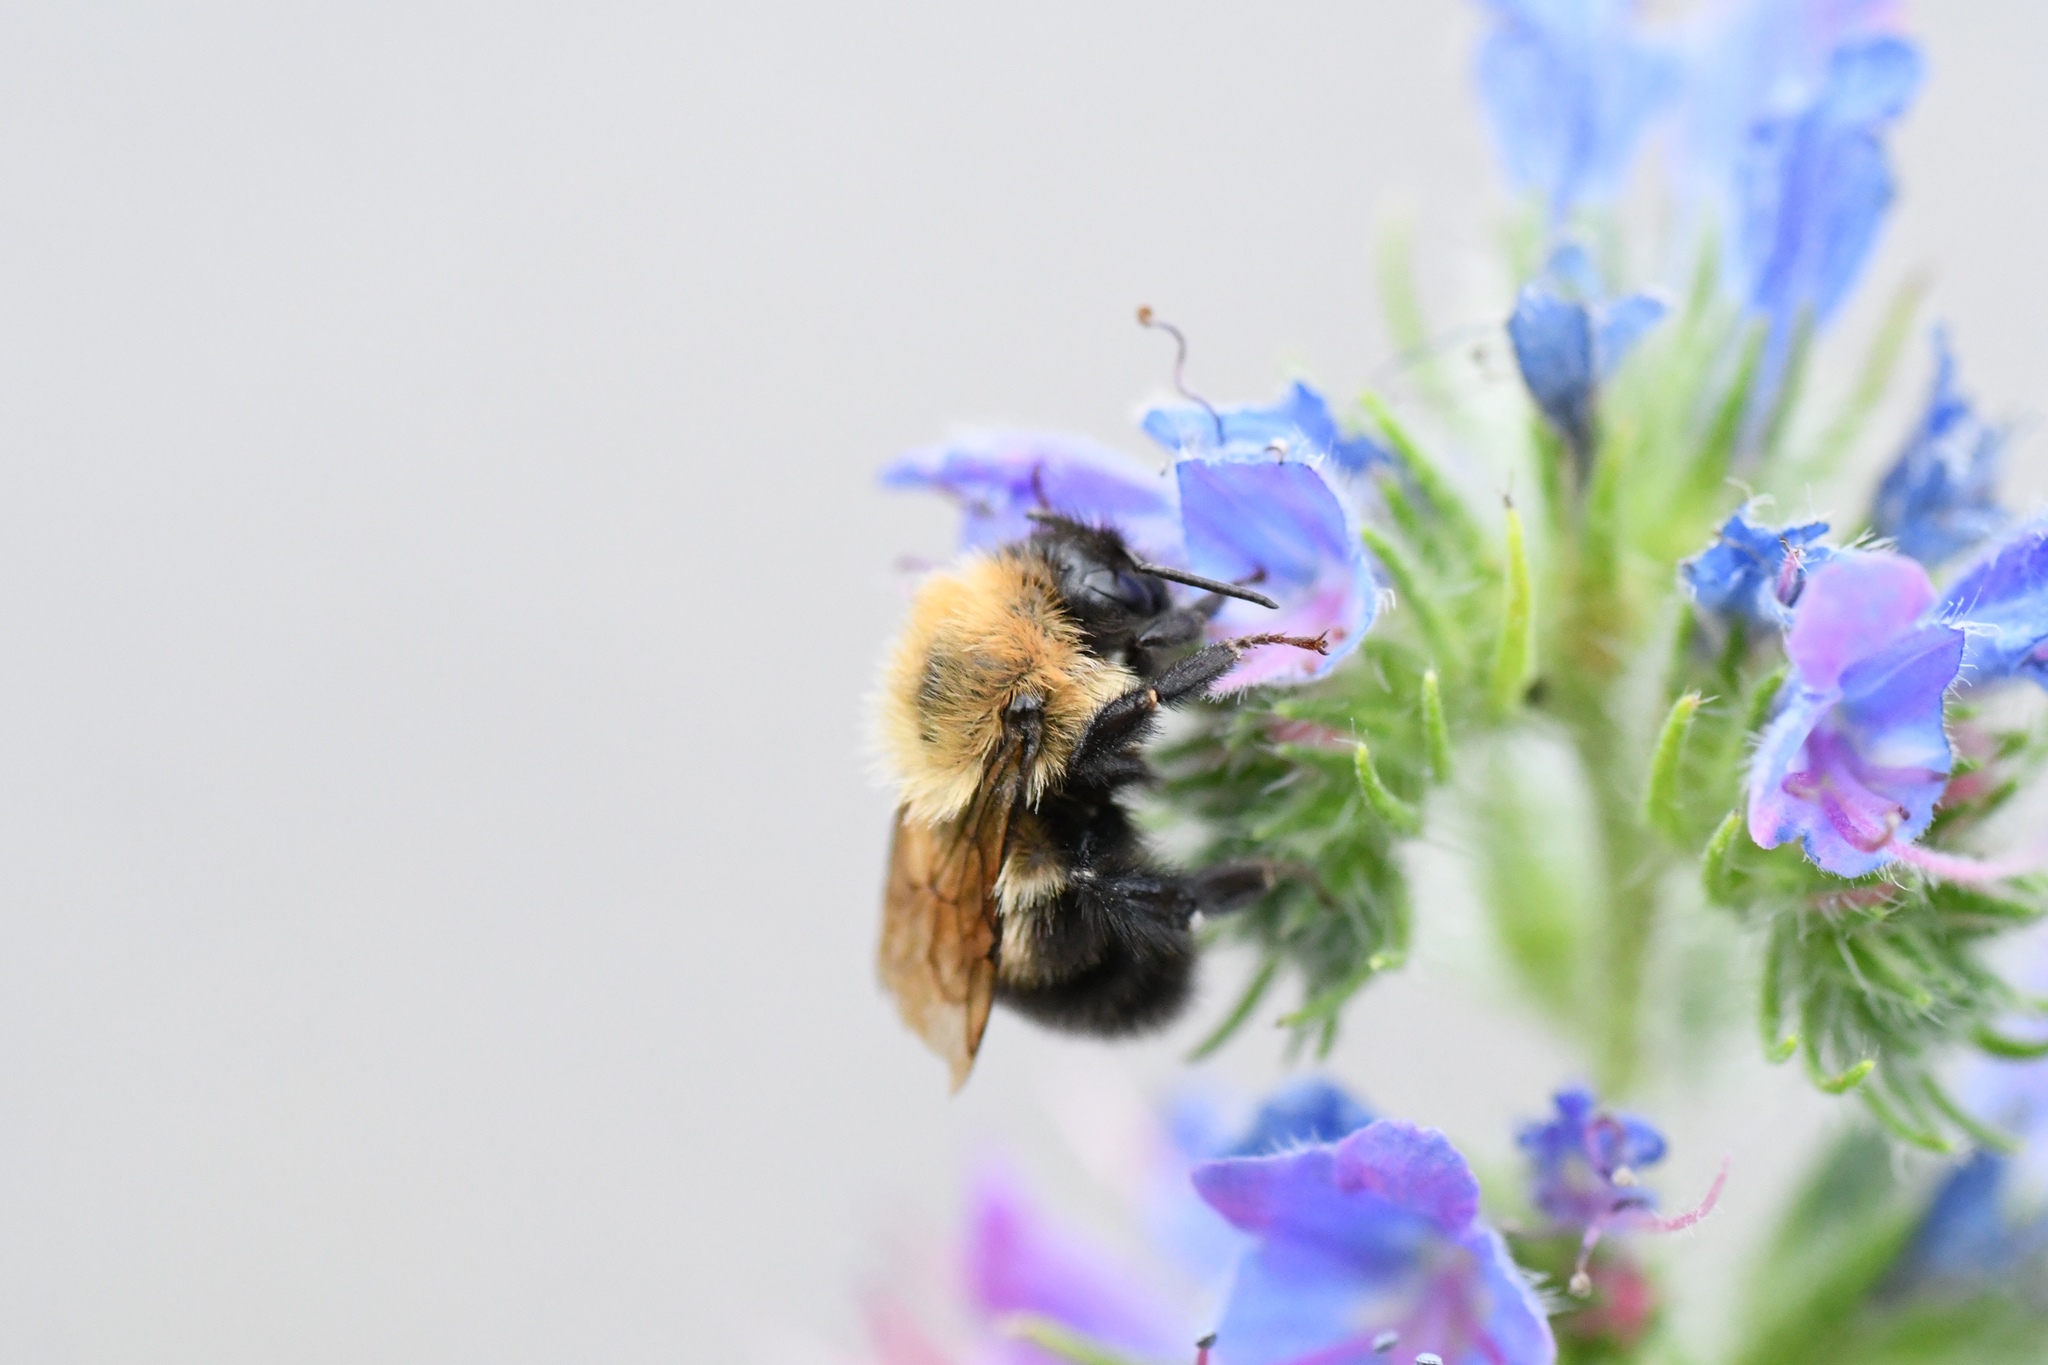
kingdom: Animalia
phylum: Arthropoda
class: Insecta
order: Hymenoptera
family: Apidae
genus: Bombus
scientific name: Bombus perplexus
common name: Confusing bumble bee
